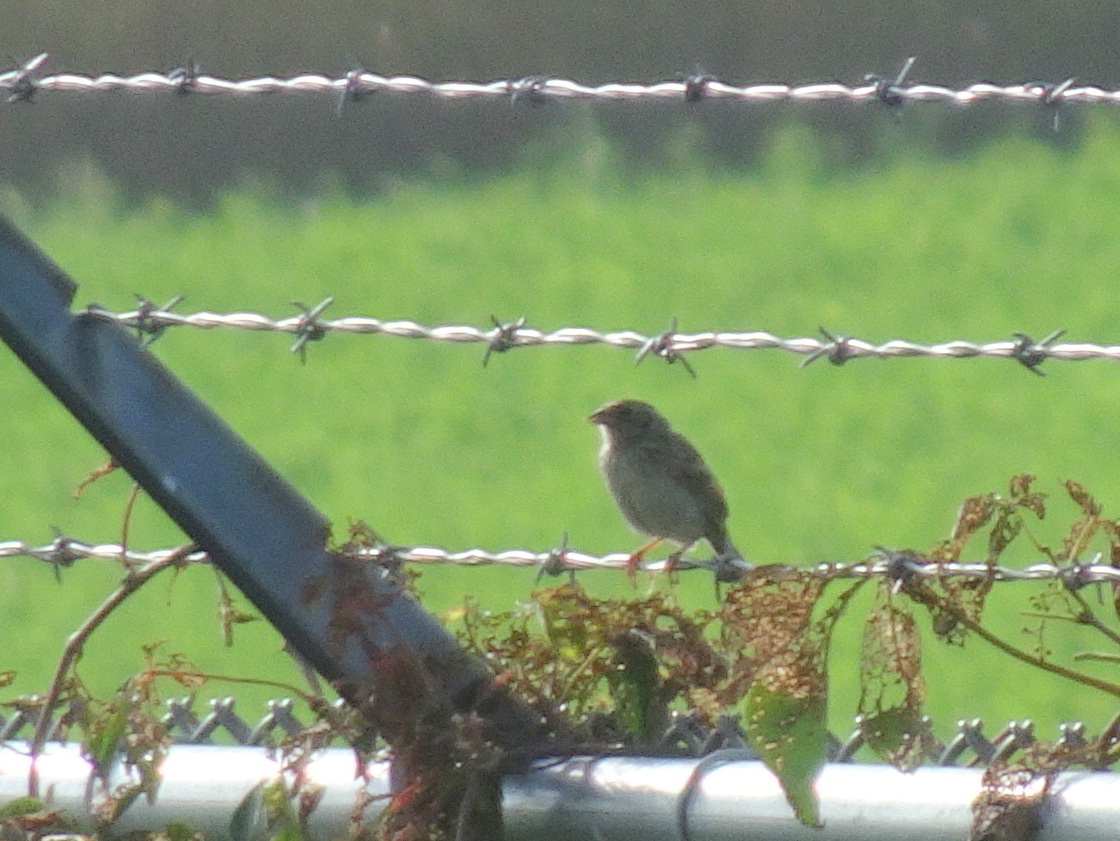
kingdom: Animalia
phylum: Chordata
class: Aves
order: Passeriformes
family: Passerellidae
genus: Ammodramus
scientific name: Ammodramus savannarum
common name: Grasshopper sparrow
